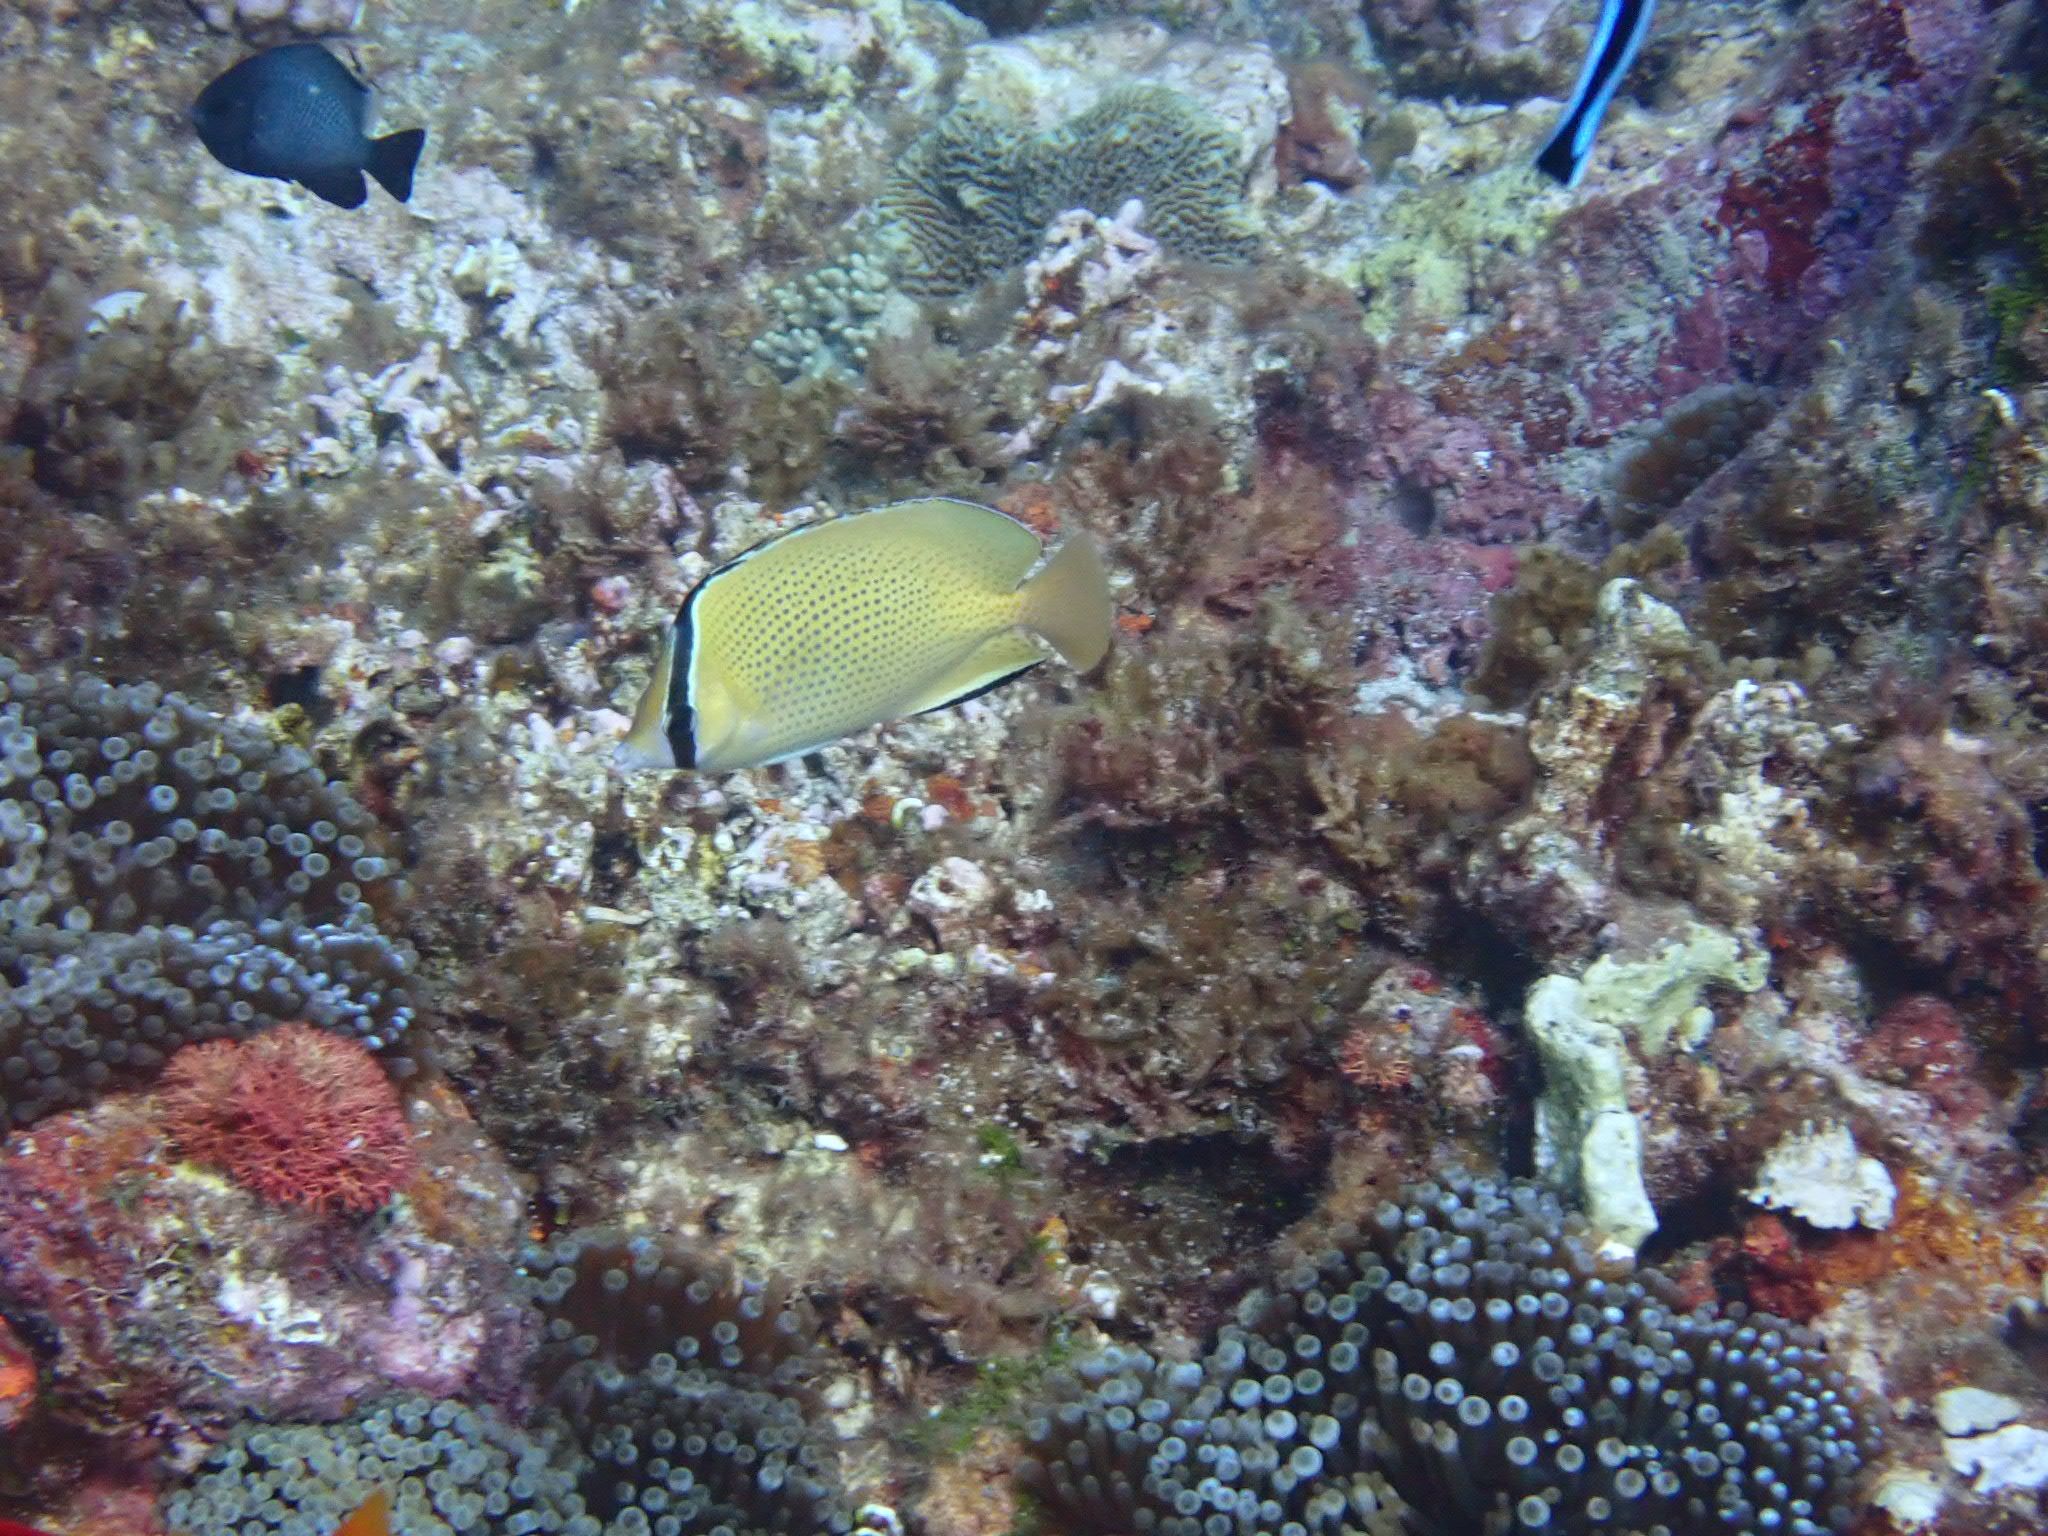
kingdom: Animalia
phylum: Chordata
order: Perciformes
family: Chaetodontidae
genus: Chaetodon
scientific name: Chaetodon citrinellus
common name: Speckled butterflyfish
